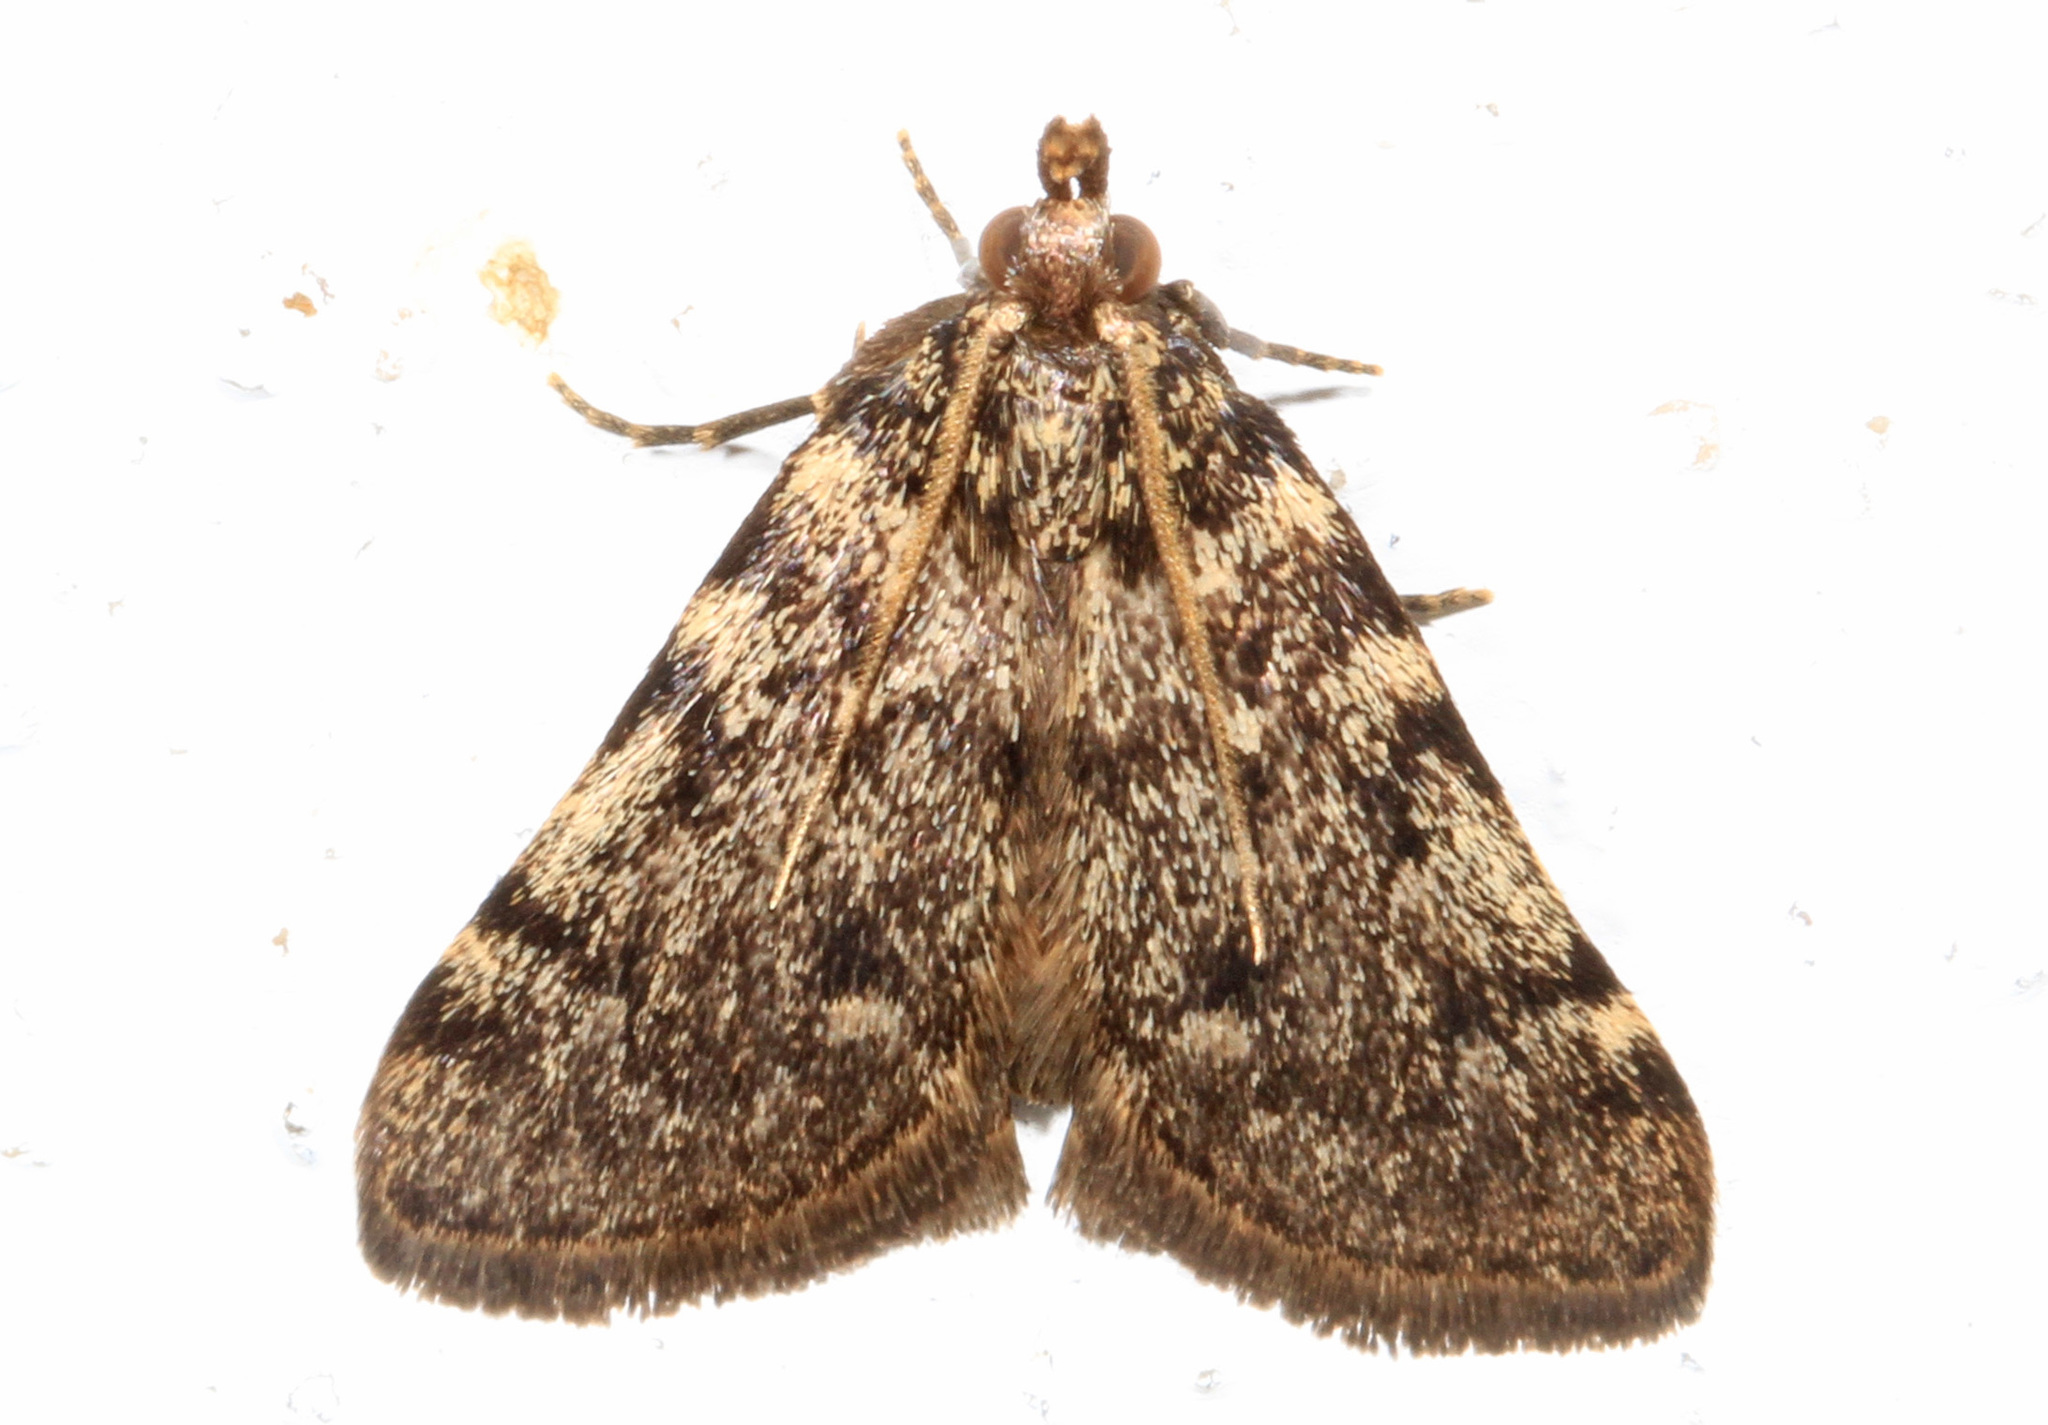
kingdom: Animalia
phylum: Arthropoda
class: Insecta
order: Lepidoptera
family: Pyralidae
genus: Aglossa
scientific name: Aglossa pinguinalis
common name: Large tabby
